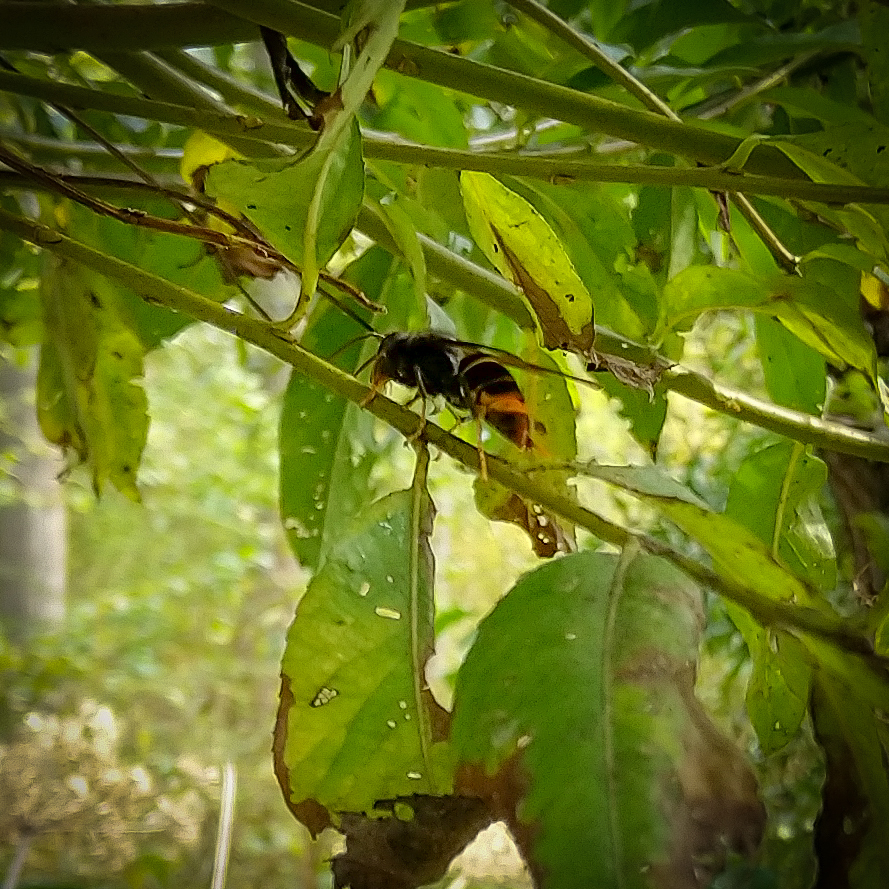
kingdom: Animalia
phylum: Arthropoda
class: Insecta
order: Hymenoptera
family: Vespidae
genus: Vespa
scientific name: Vespa velutina
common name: Asian hornet
